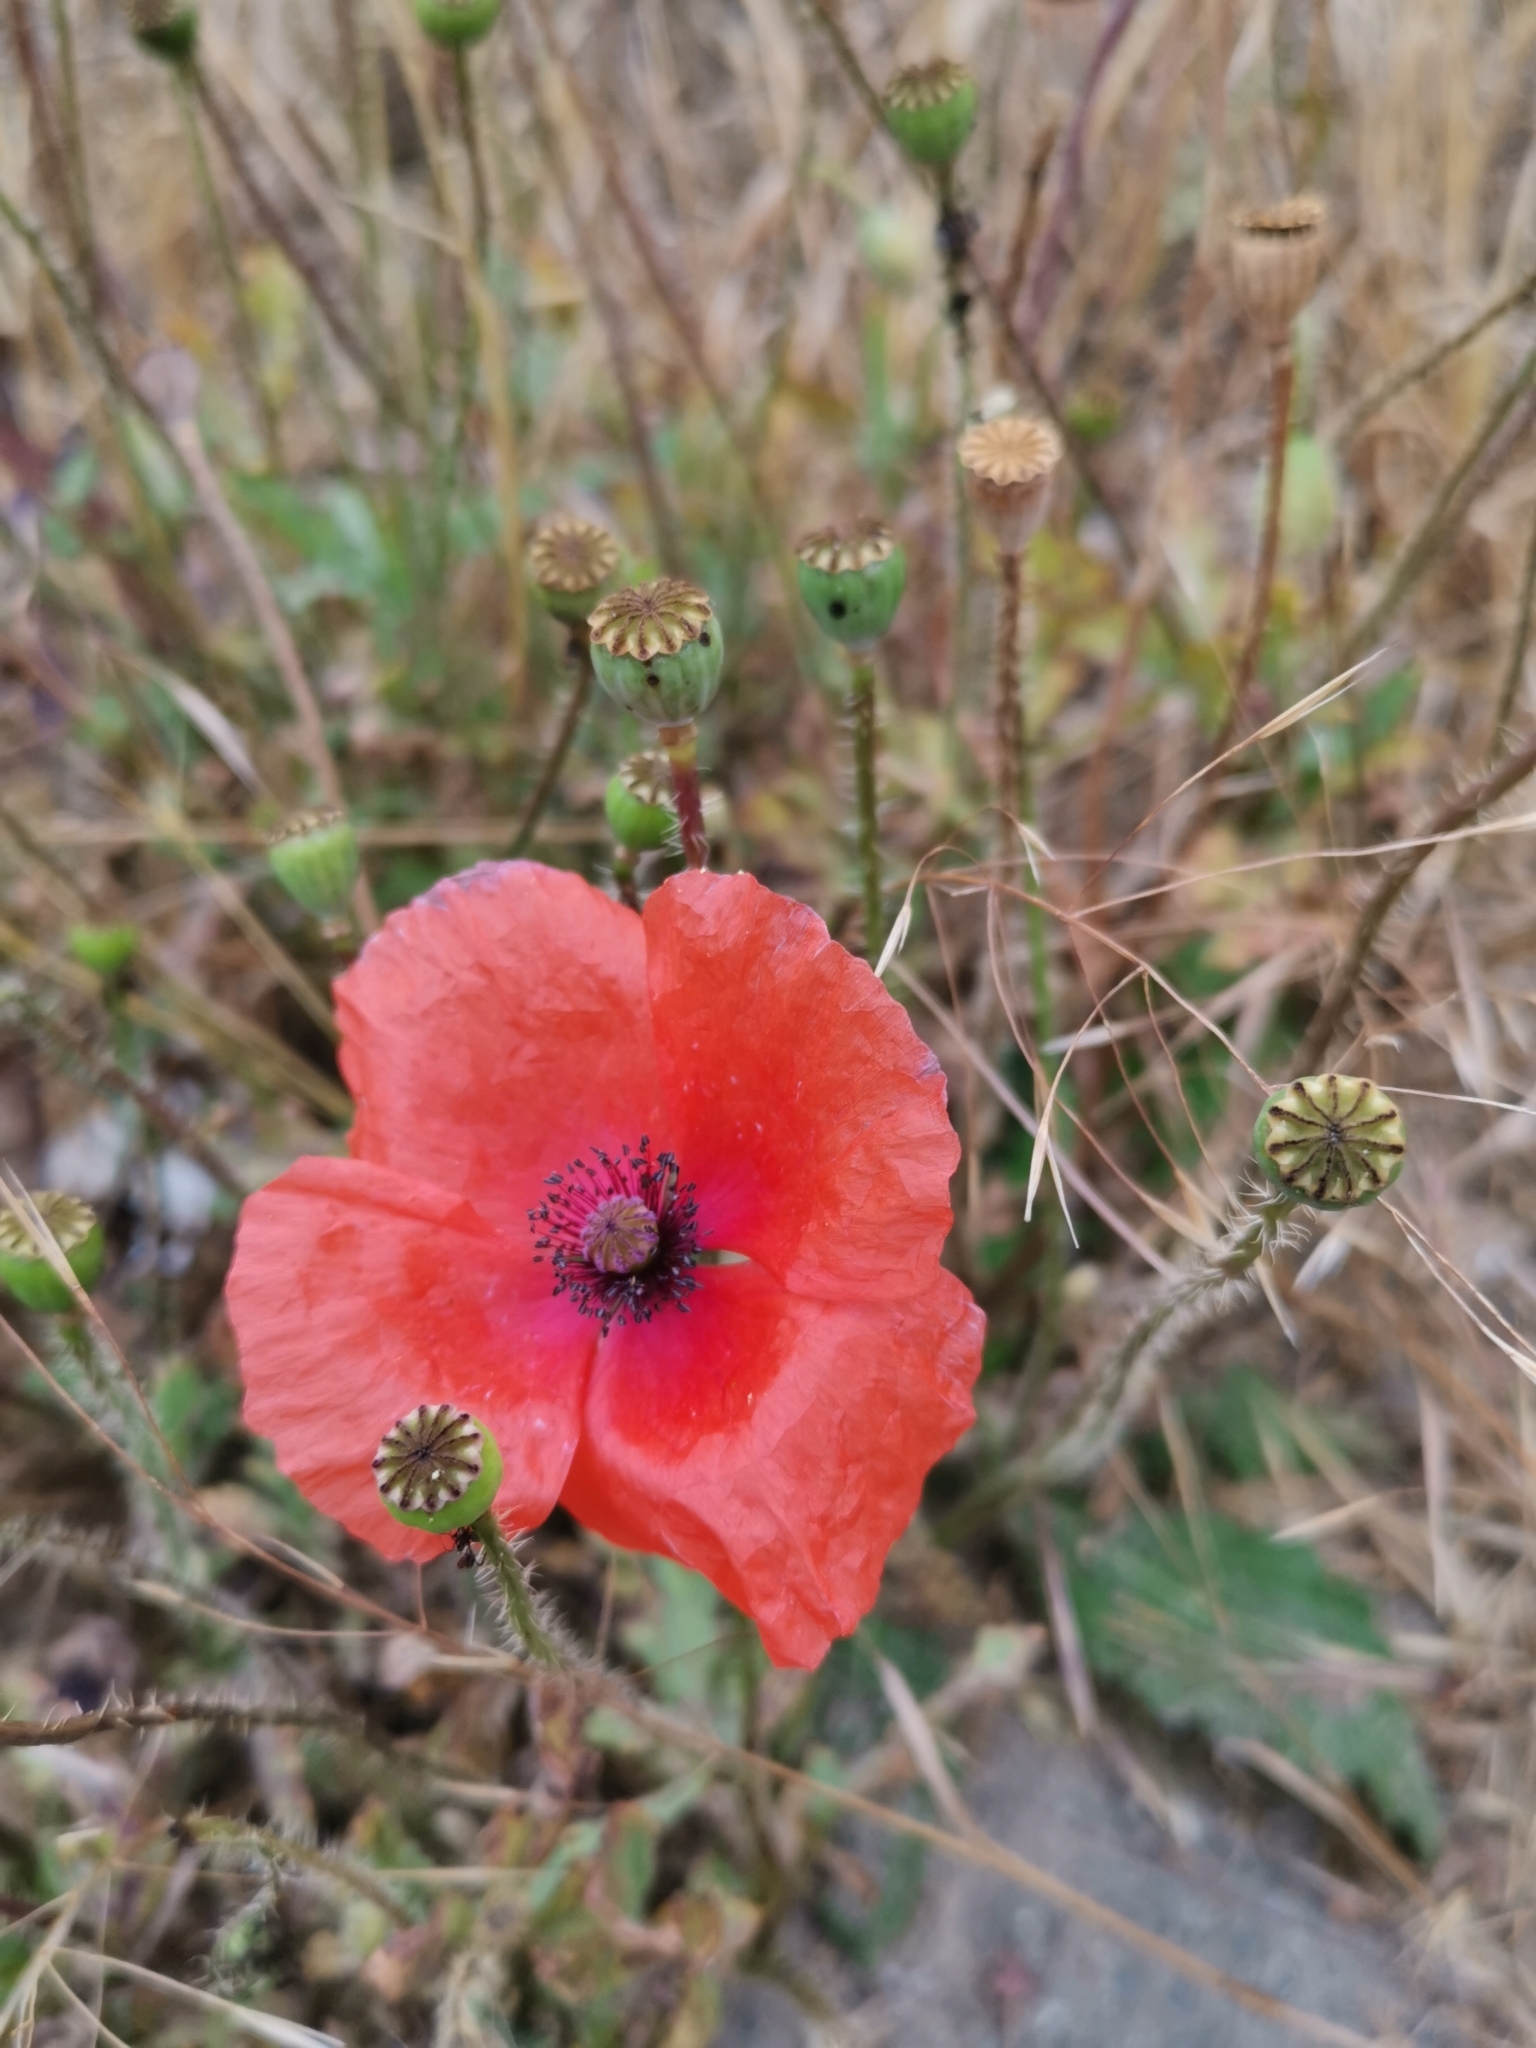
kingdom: Plantae
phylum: Tracheophyta
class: Magnoliopsida
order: Ranunculales
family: Papaveraceae
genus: Papaver
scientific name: Papaver rhoeas
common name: Corn poppy
